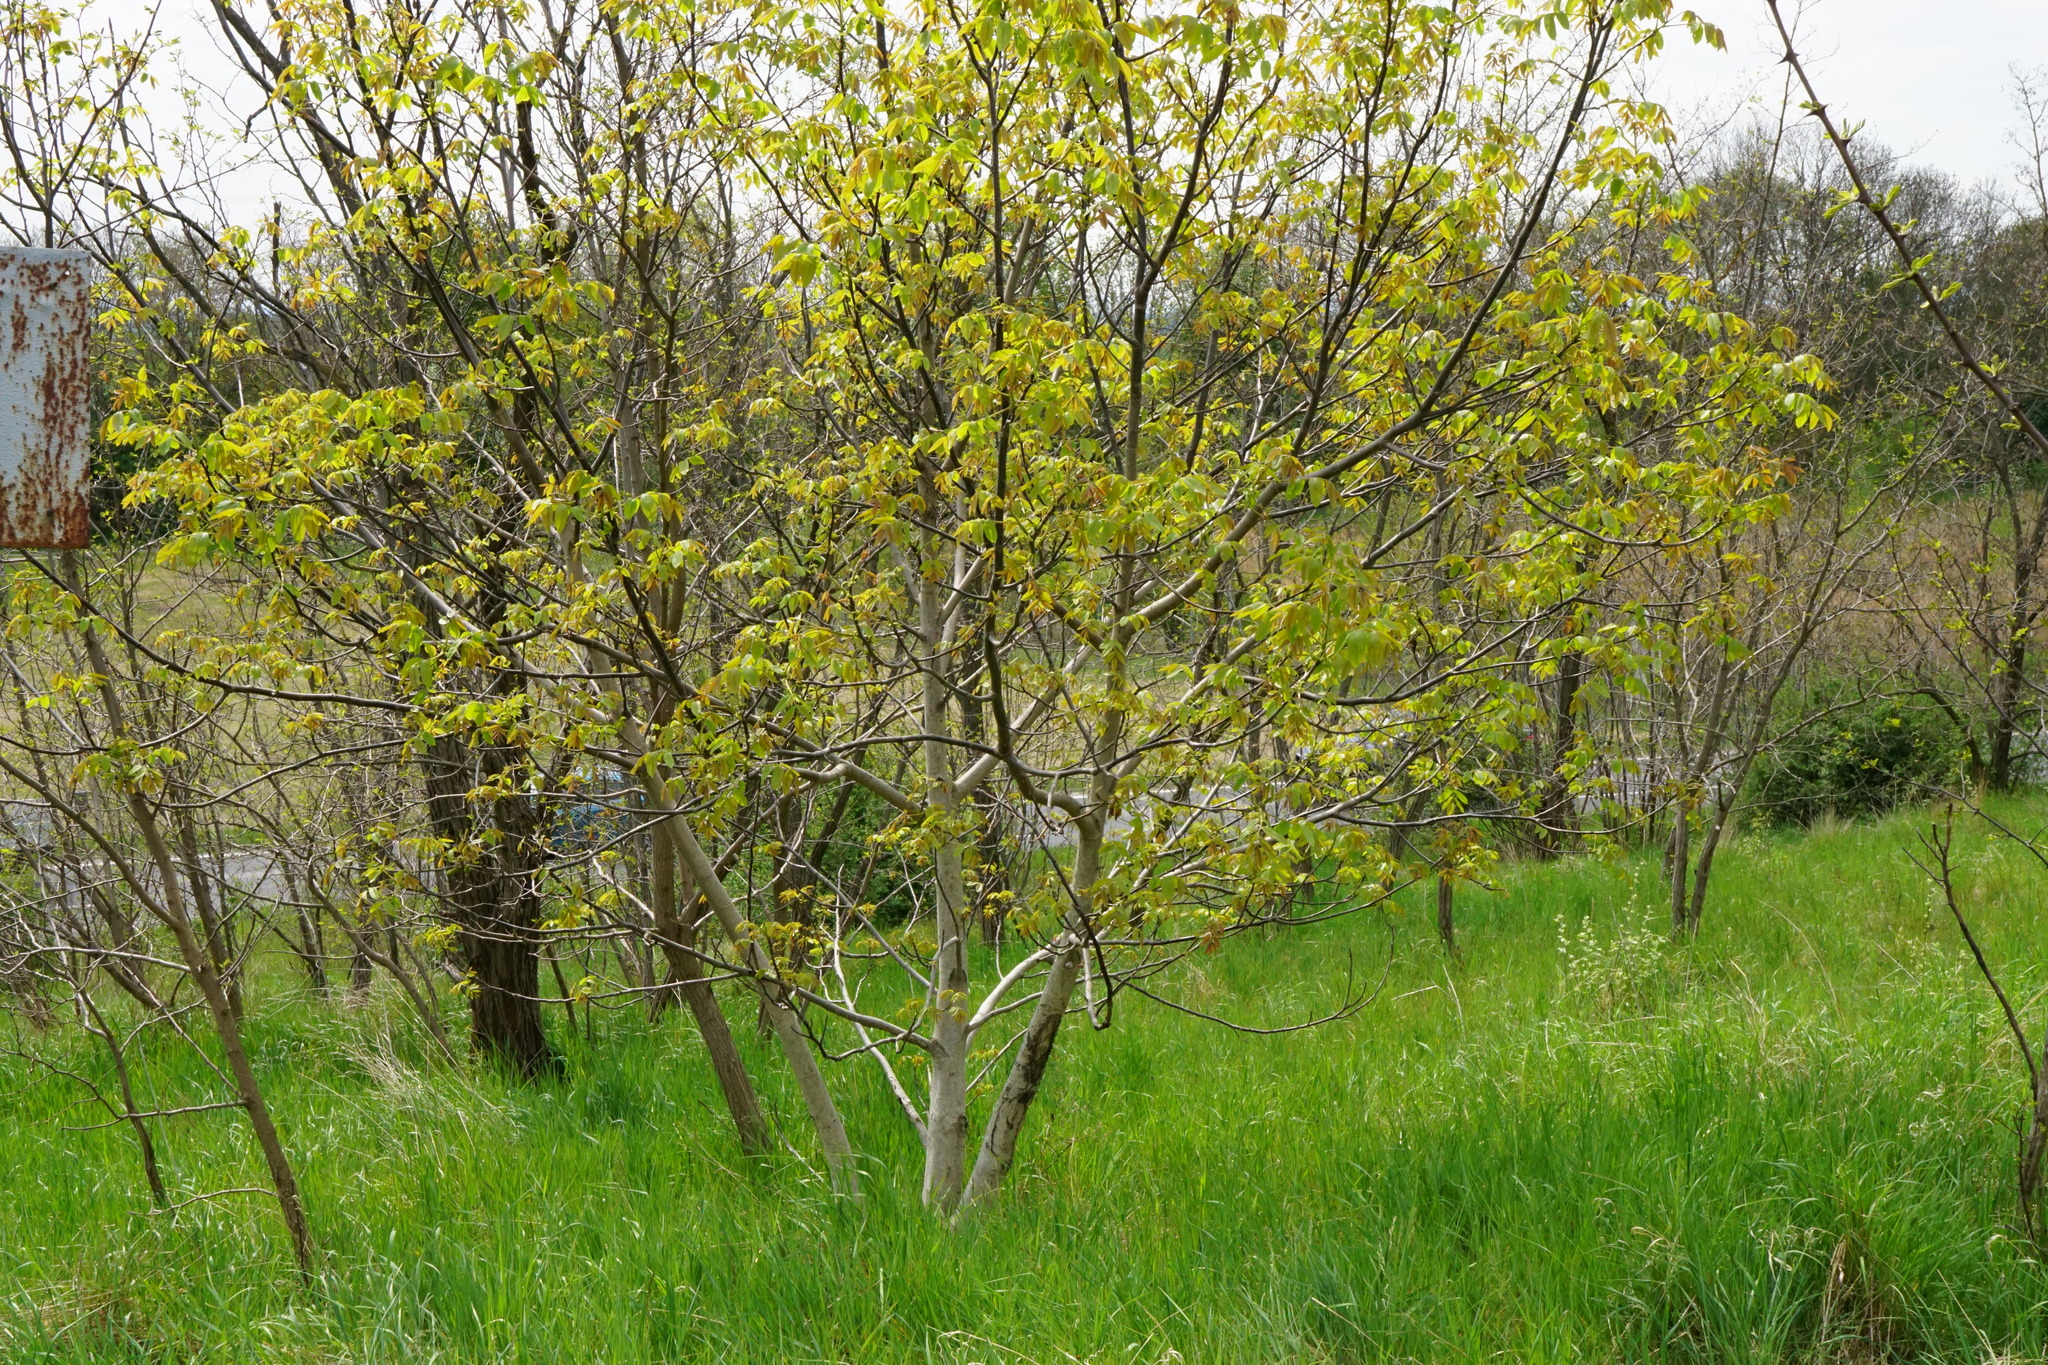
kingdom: Plantae
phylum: Tracheophyta
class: Magnoliopsida
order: Fagales
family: Juglandaceae
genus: Juglans
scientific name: Juglans regia
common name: Walnut
